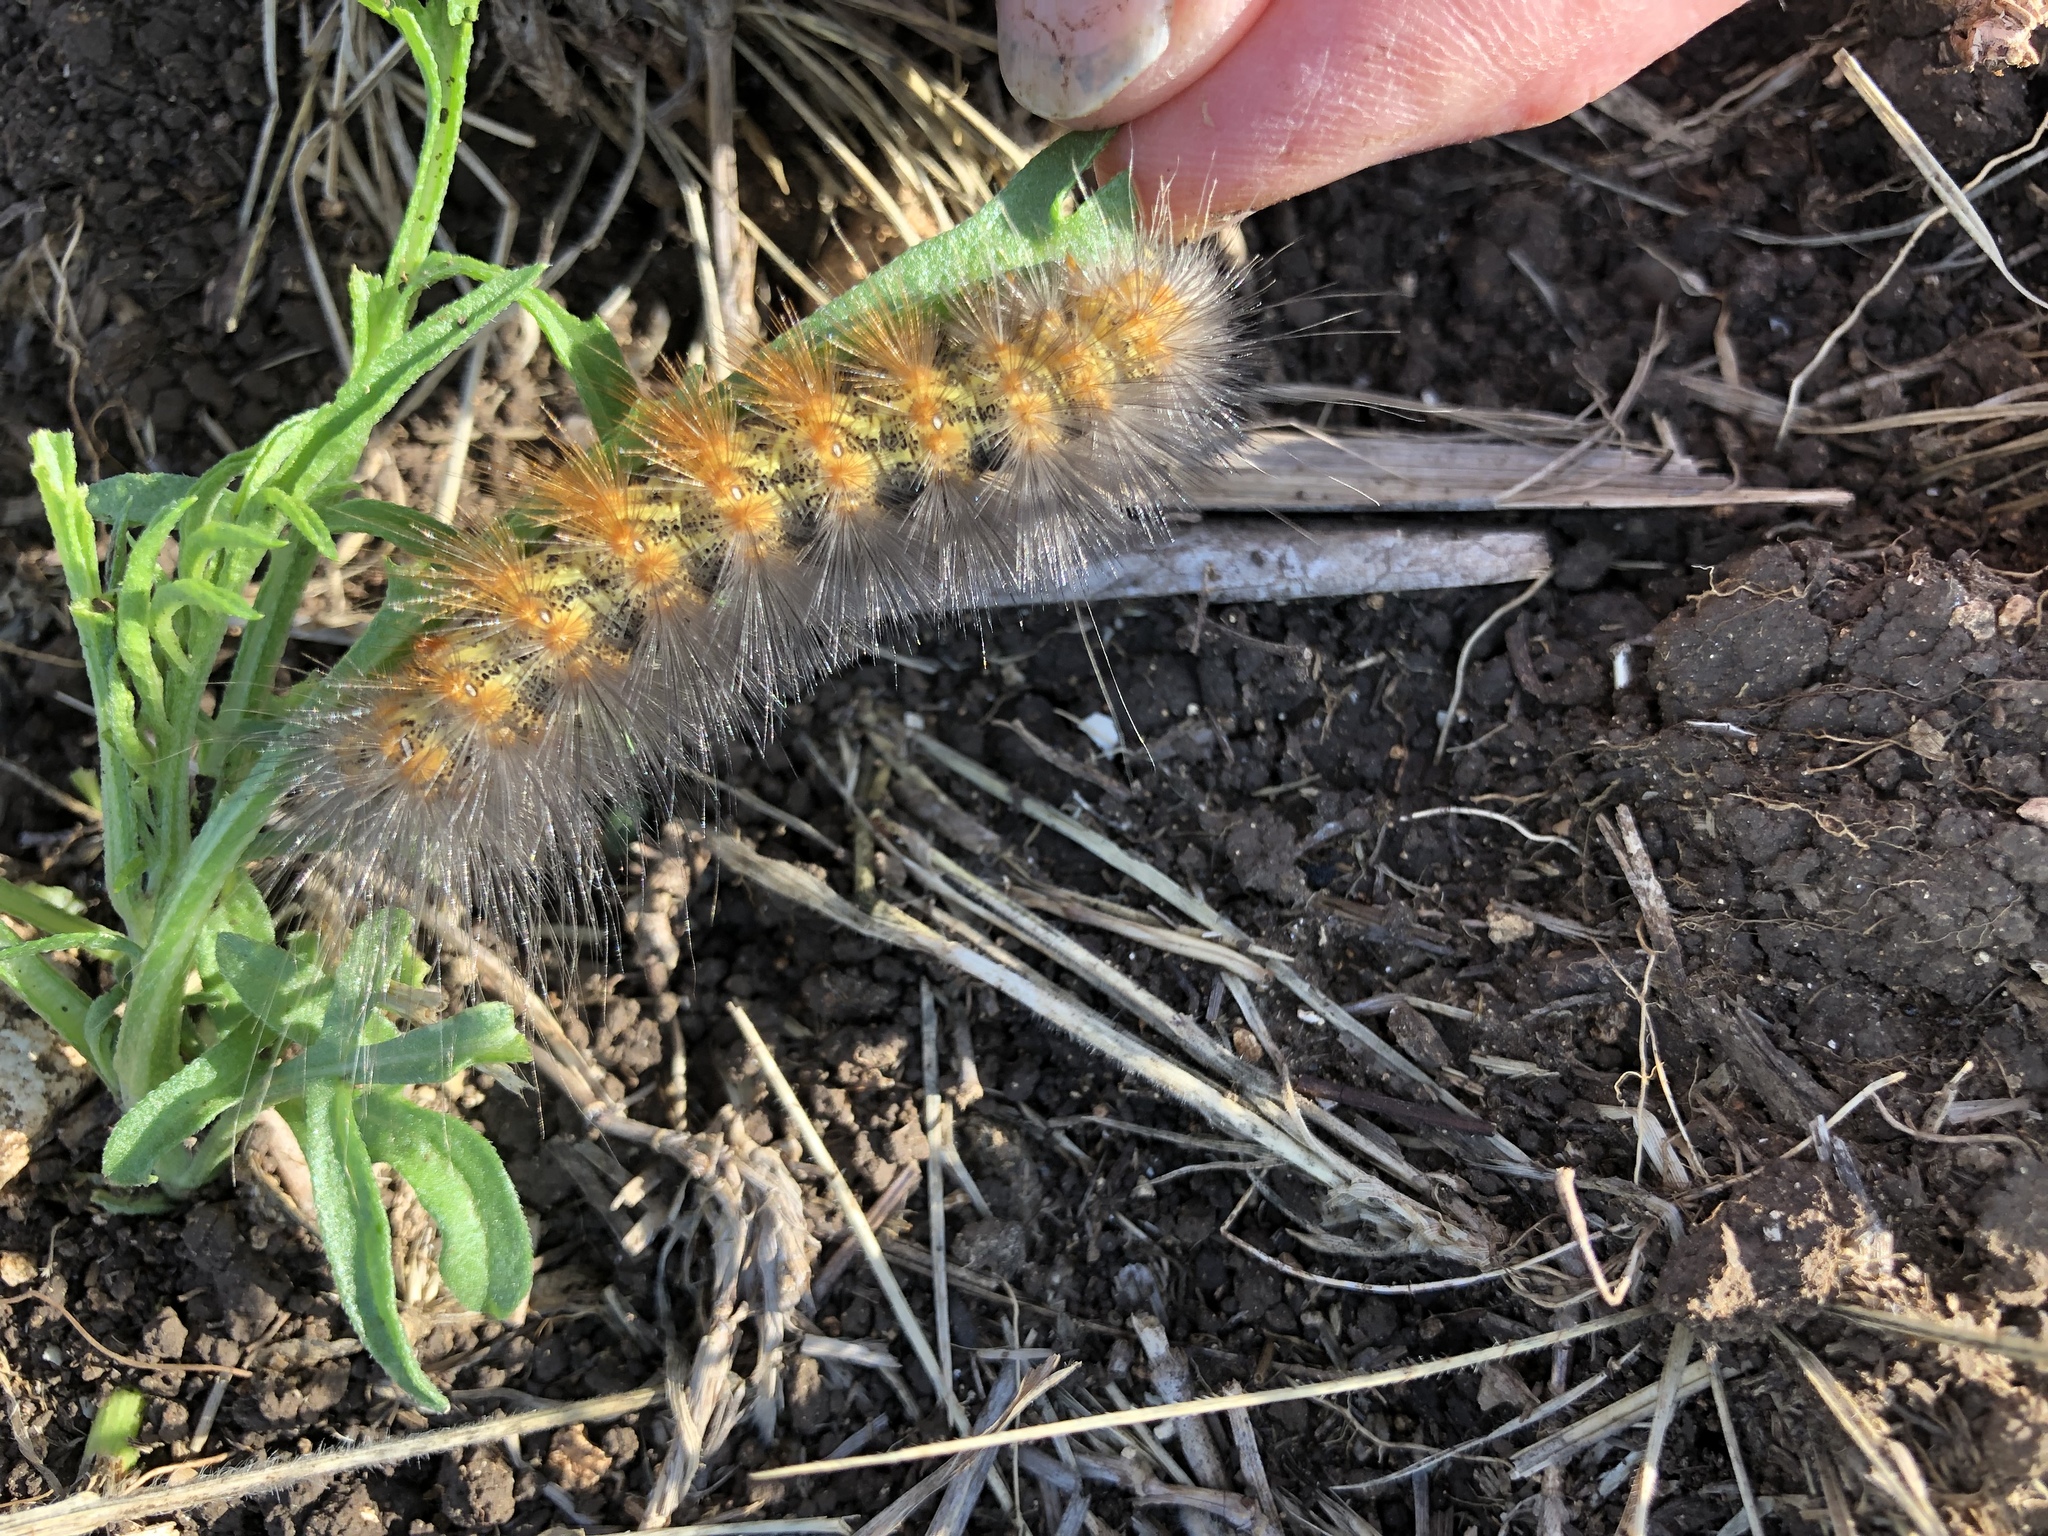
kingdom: Animalia
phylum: Arthropoda
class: Insecta
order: Lepidoptera
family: Erebidae
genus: Estigmene
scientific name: Estigmene acrea
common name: Salt marsh moth
